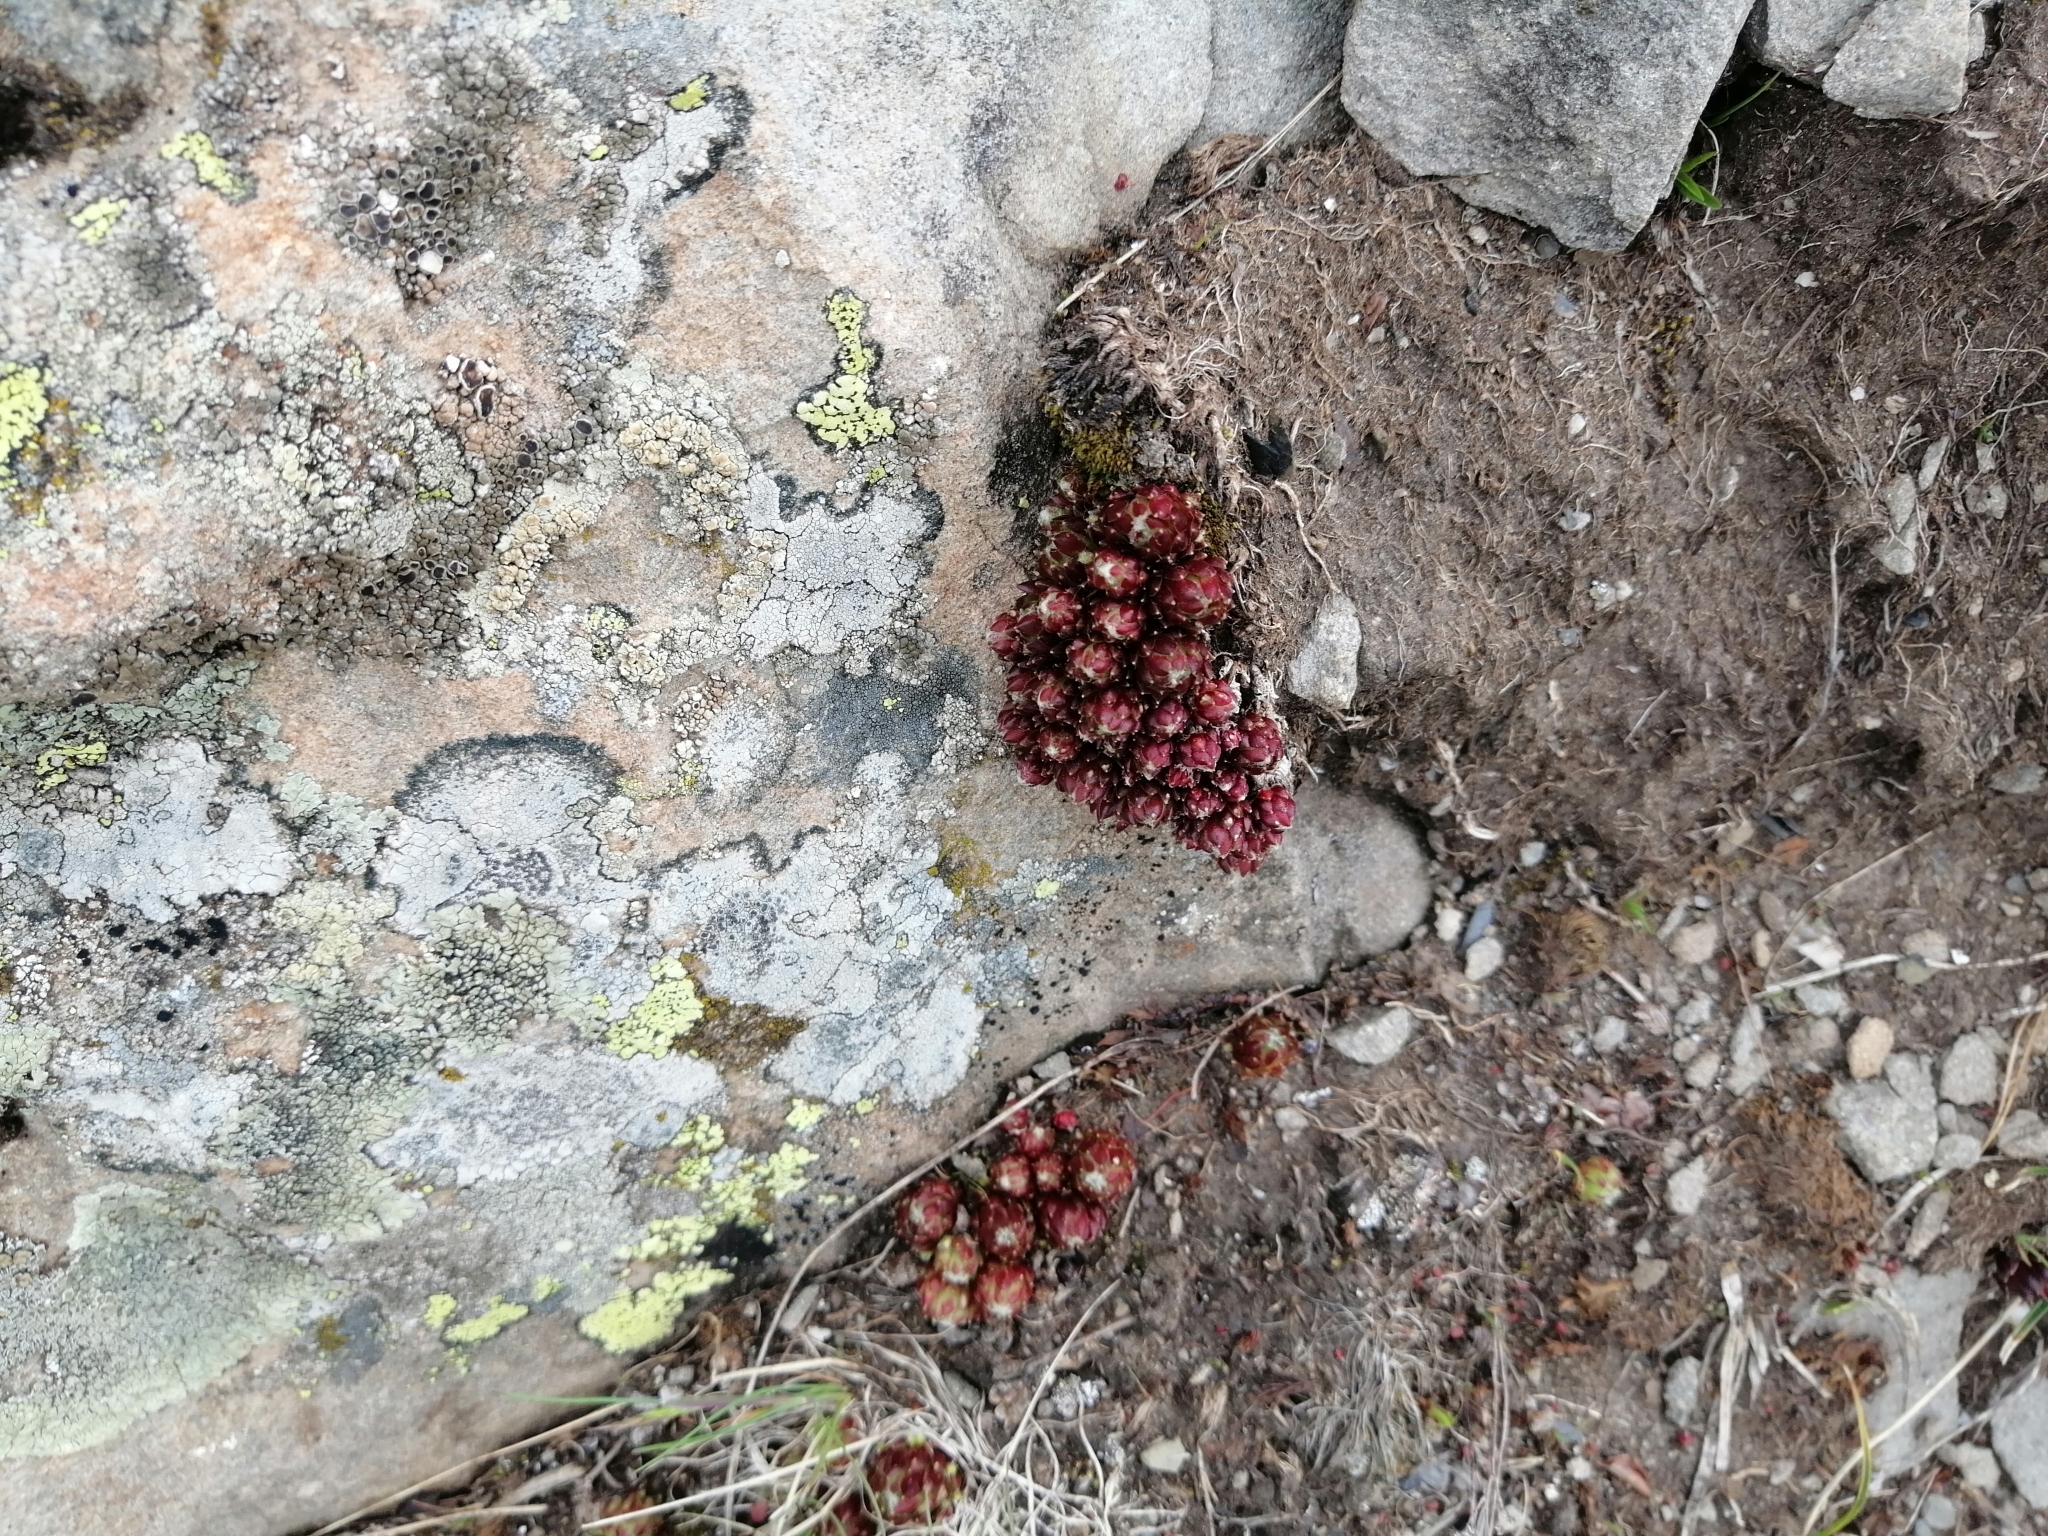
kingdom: Plantae
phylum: Tracheophyta
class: Magnoliopsida
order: Saxifragales
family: Crassulaceae
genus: Sempervivum
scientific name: Sempervivum arachnoideum
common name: Cobweb house-leek
